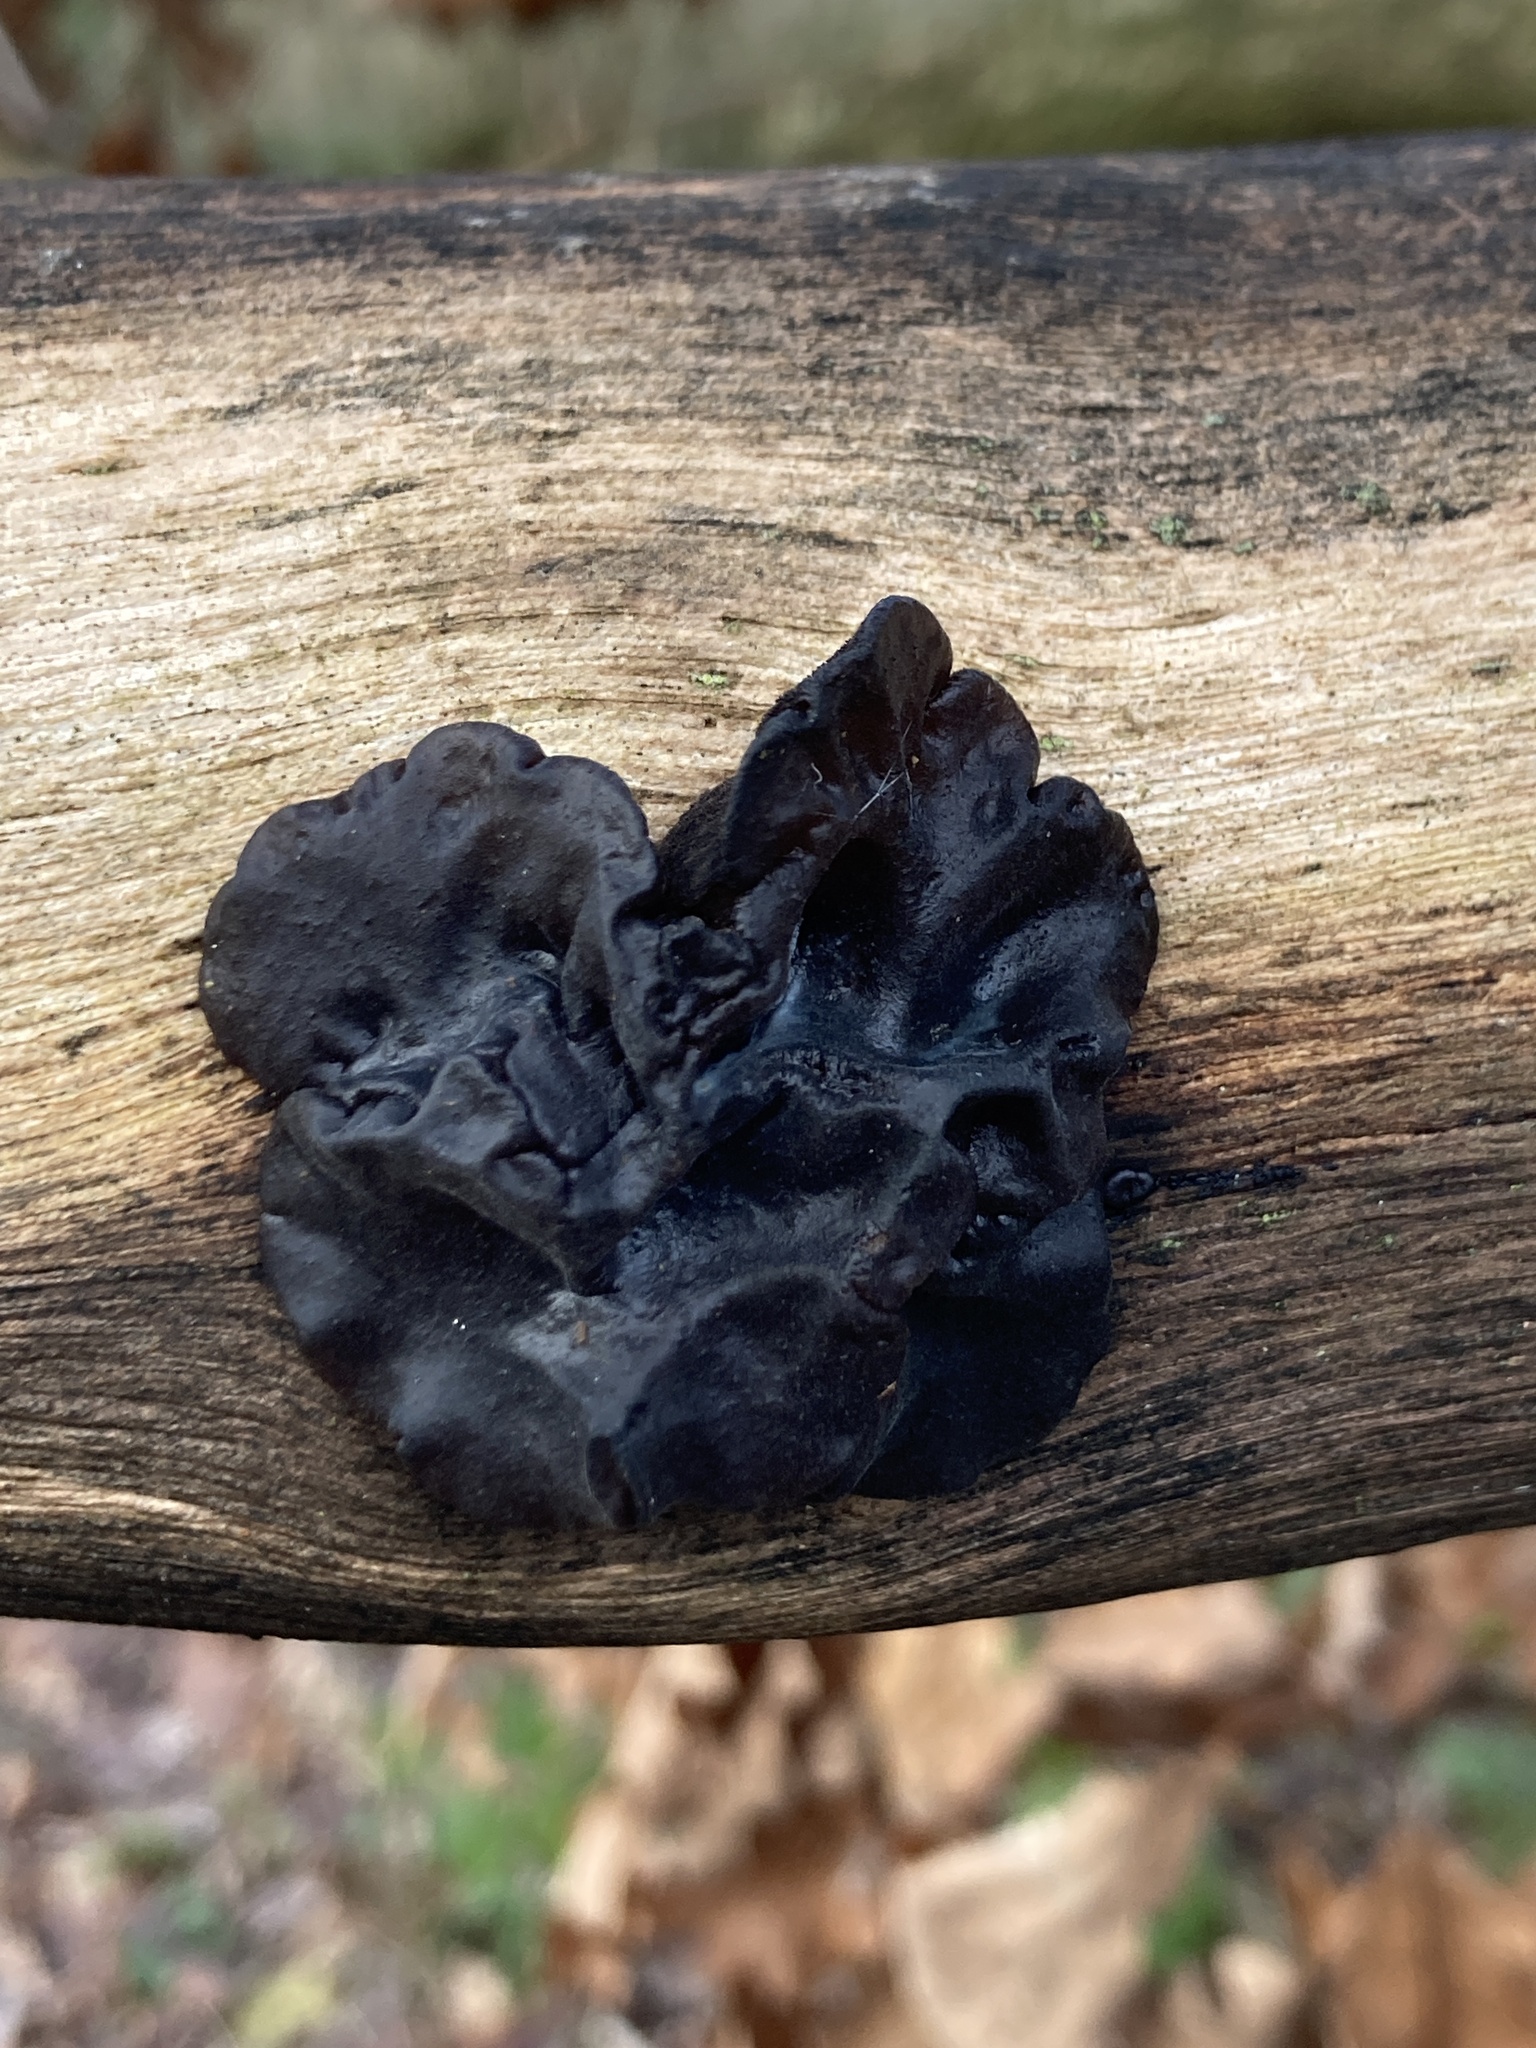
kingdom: Fungi
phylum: Basidiomycota
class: Agaricomycetes
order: Auriculariales
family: Auriculariaceae
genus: Exidia
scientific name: Exidia glandulosa
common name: Witches' butter
